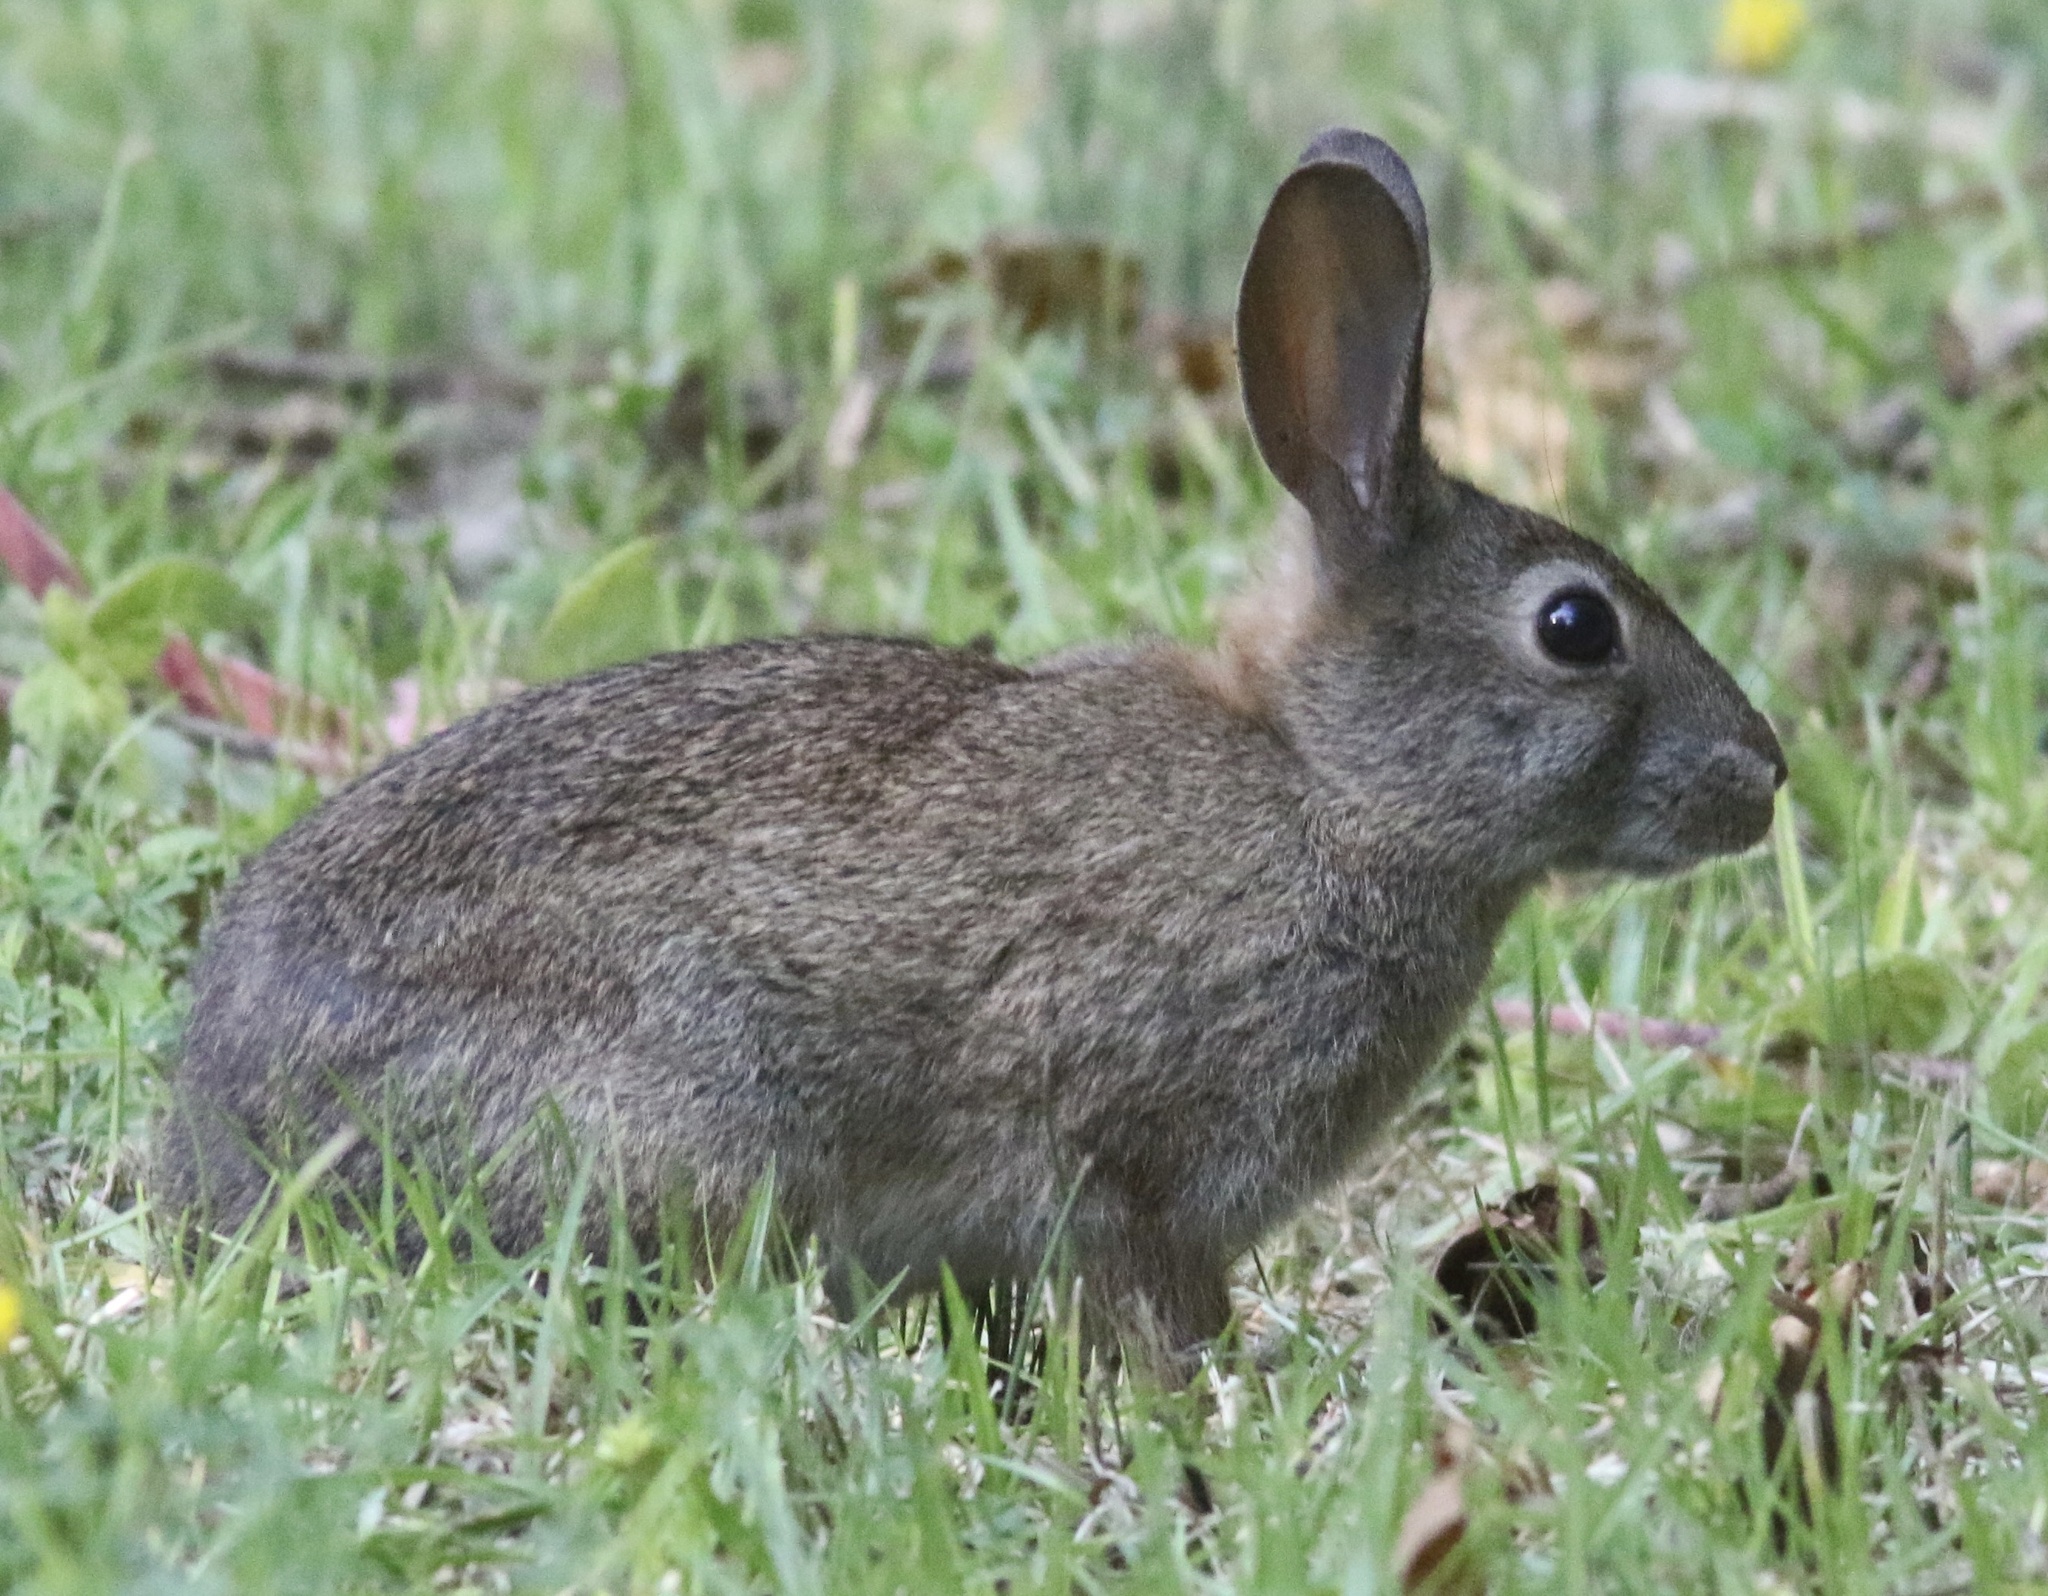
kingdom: Animalia
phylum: Chordata
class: Mammalia
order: Lagomorpha
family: Leporidae
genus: Sylvilagus
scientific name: Sylvilagus bachmani
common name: Brush rabbit
